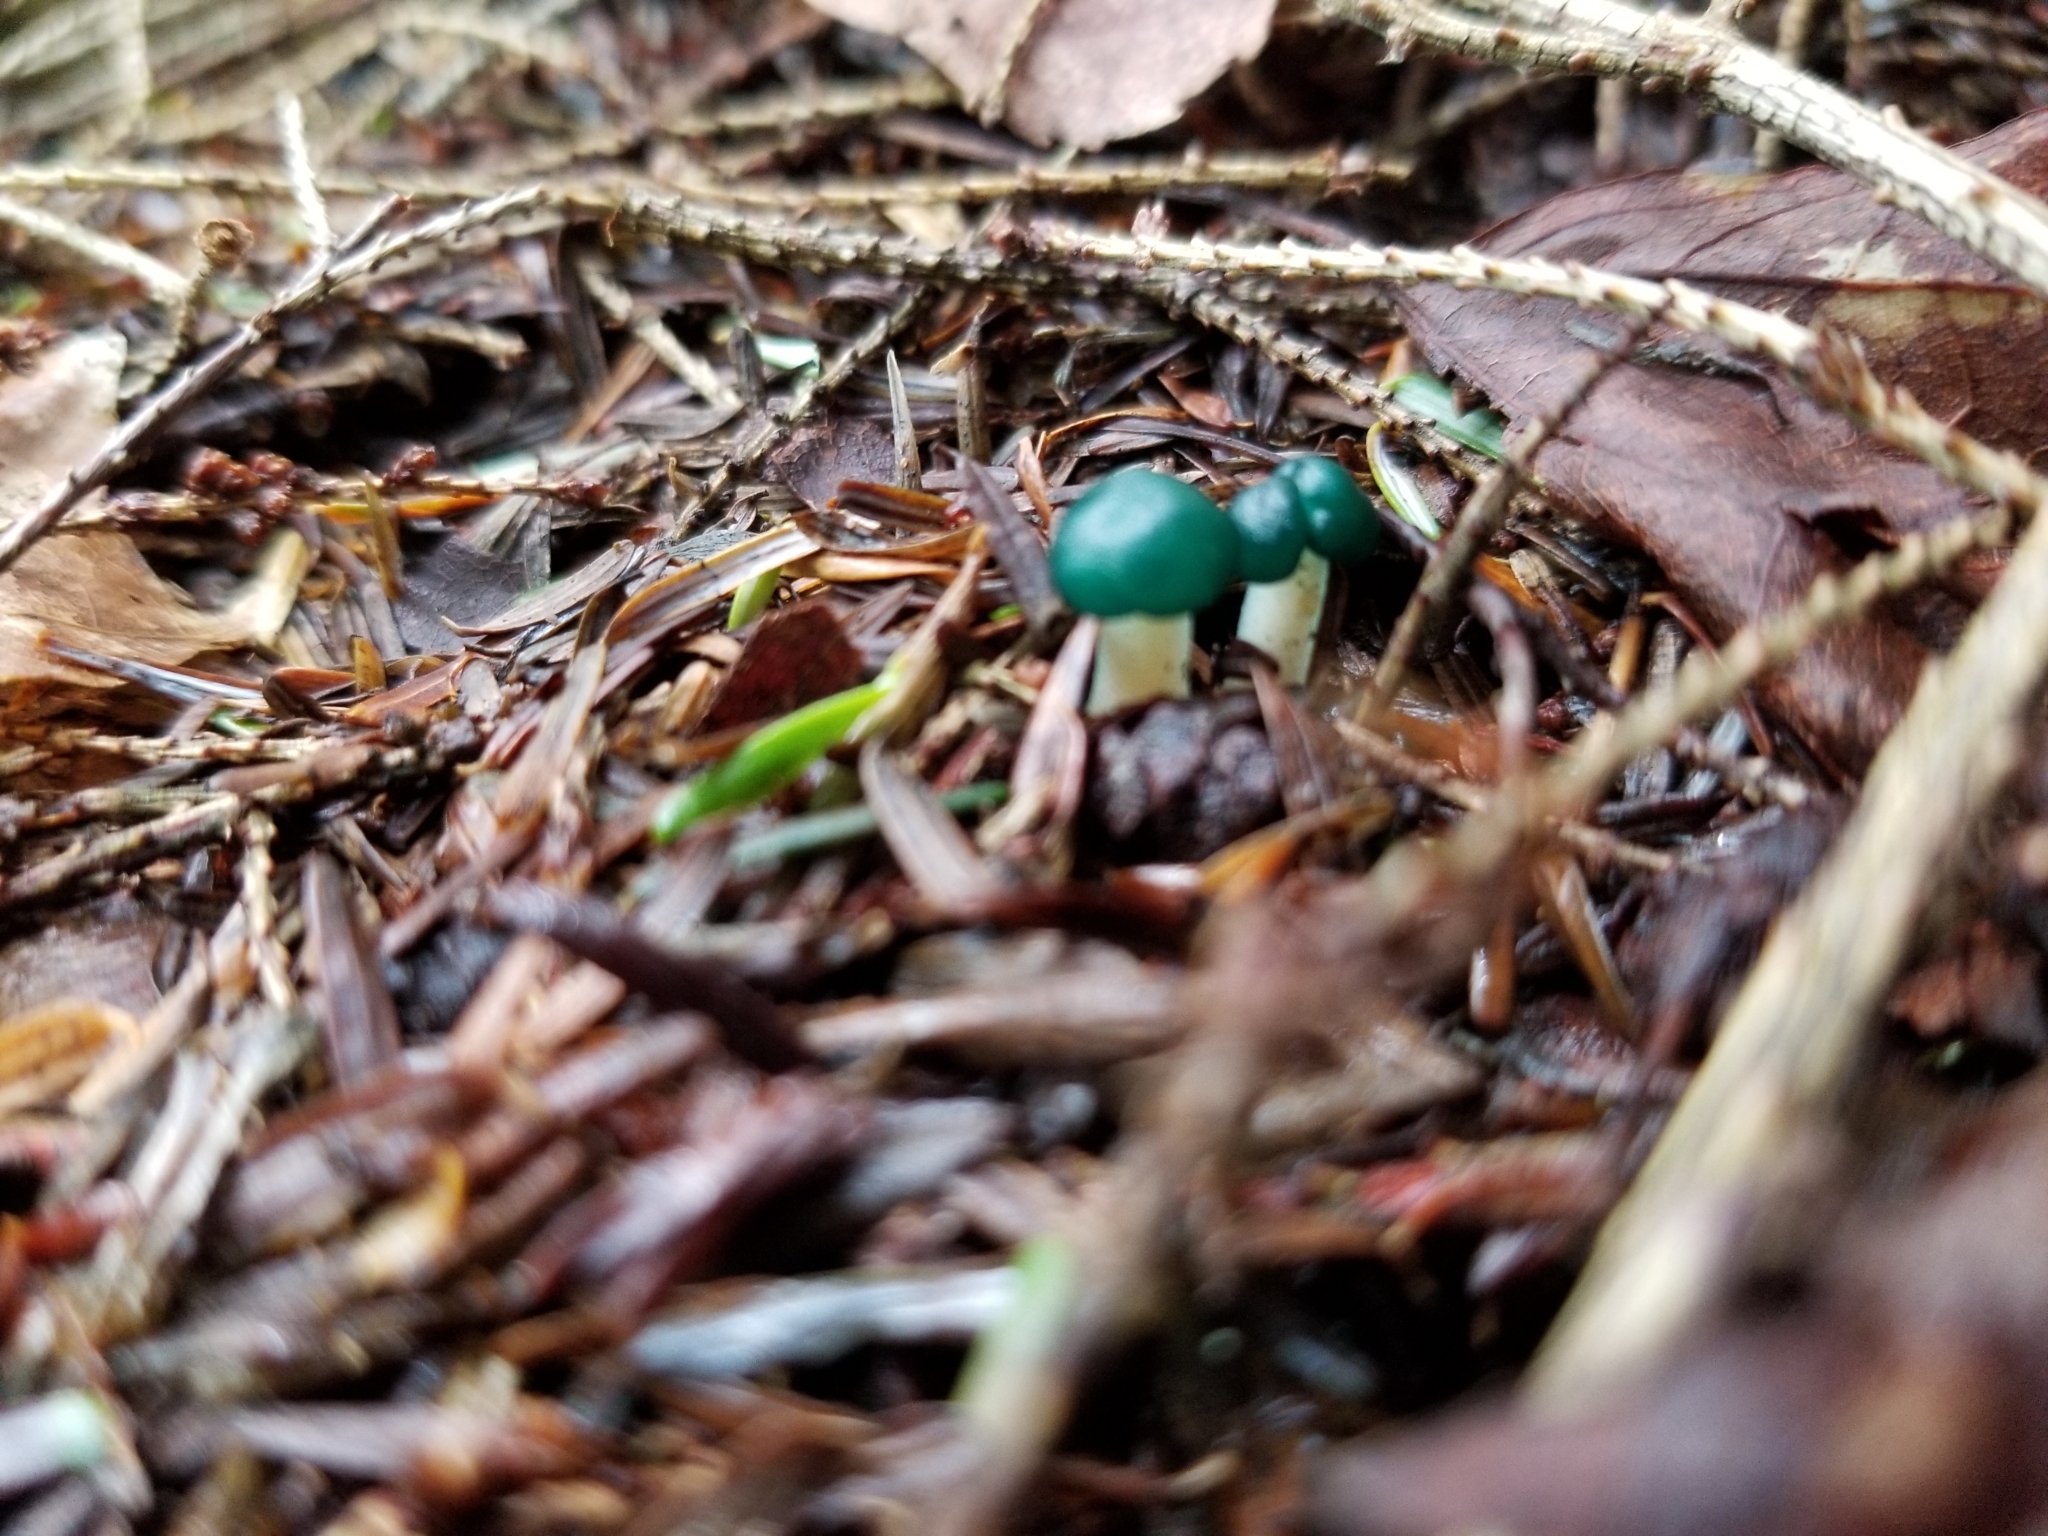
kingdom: Fungi
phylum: Ascomycota
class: Leotiomycetes
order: Leotiales
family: Leotiaceae
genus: Leotia
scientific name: Leotia lubrica
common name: Jellybaby
